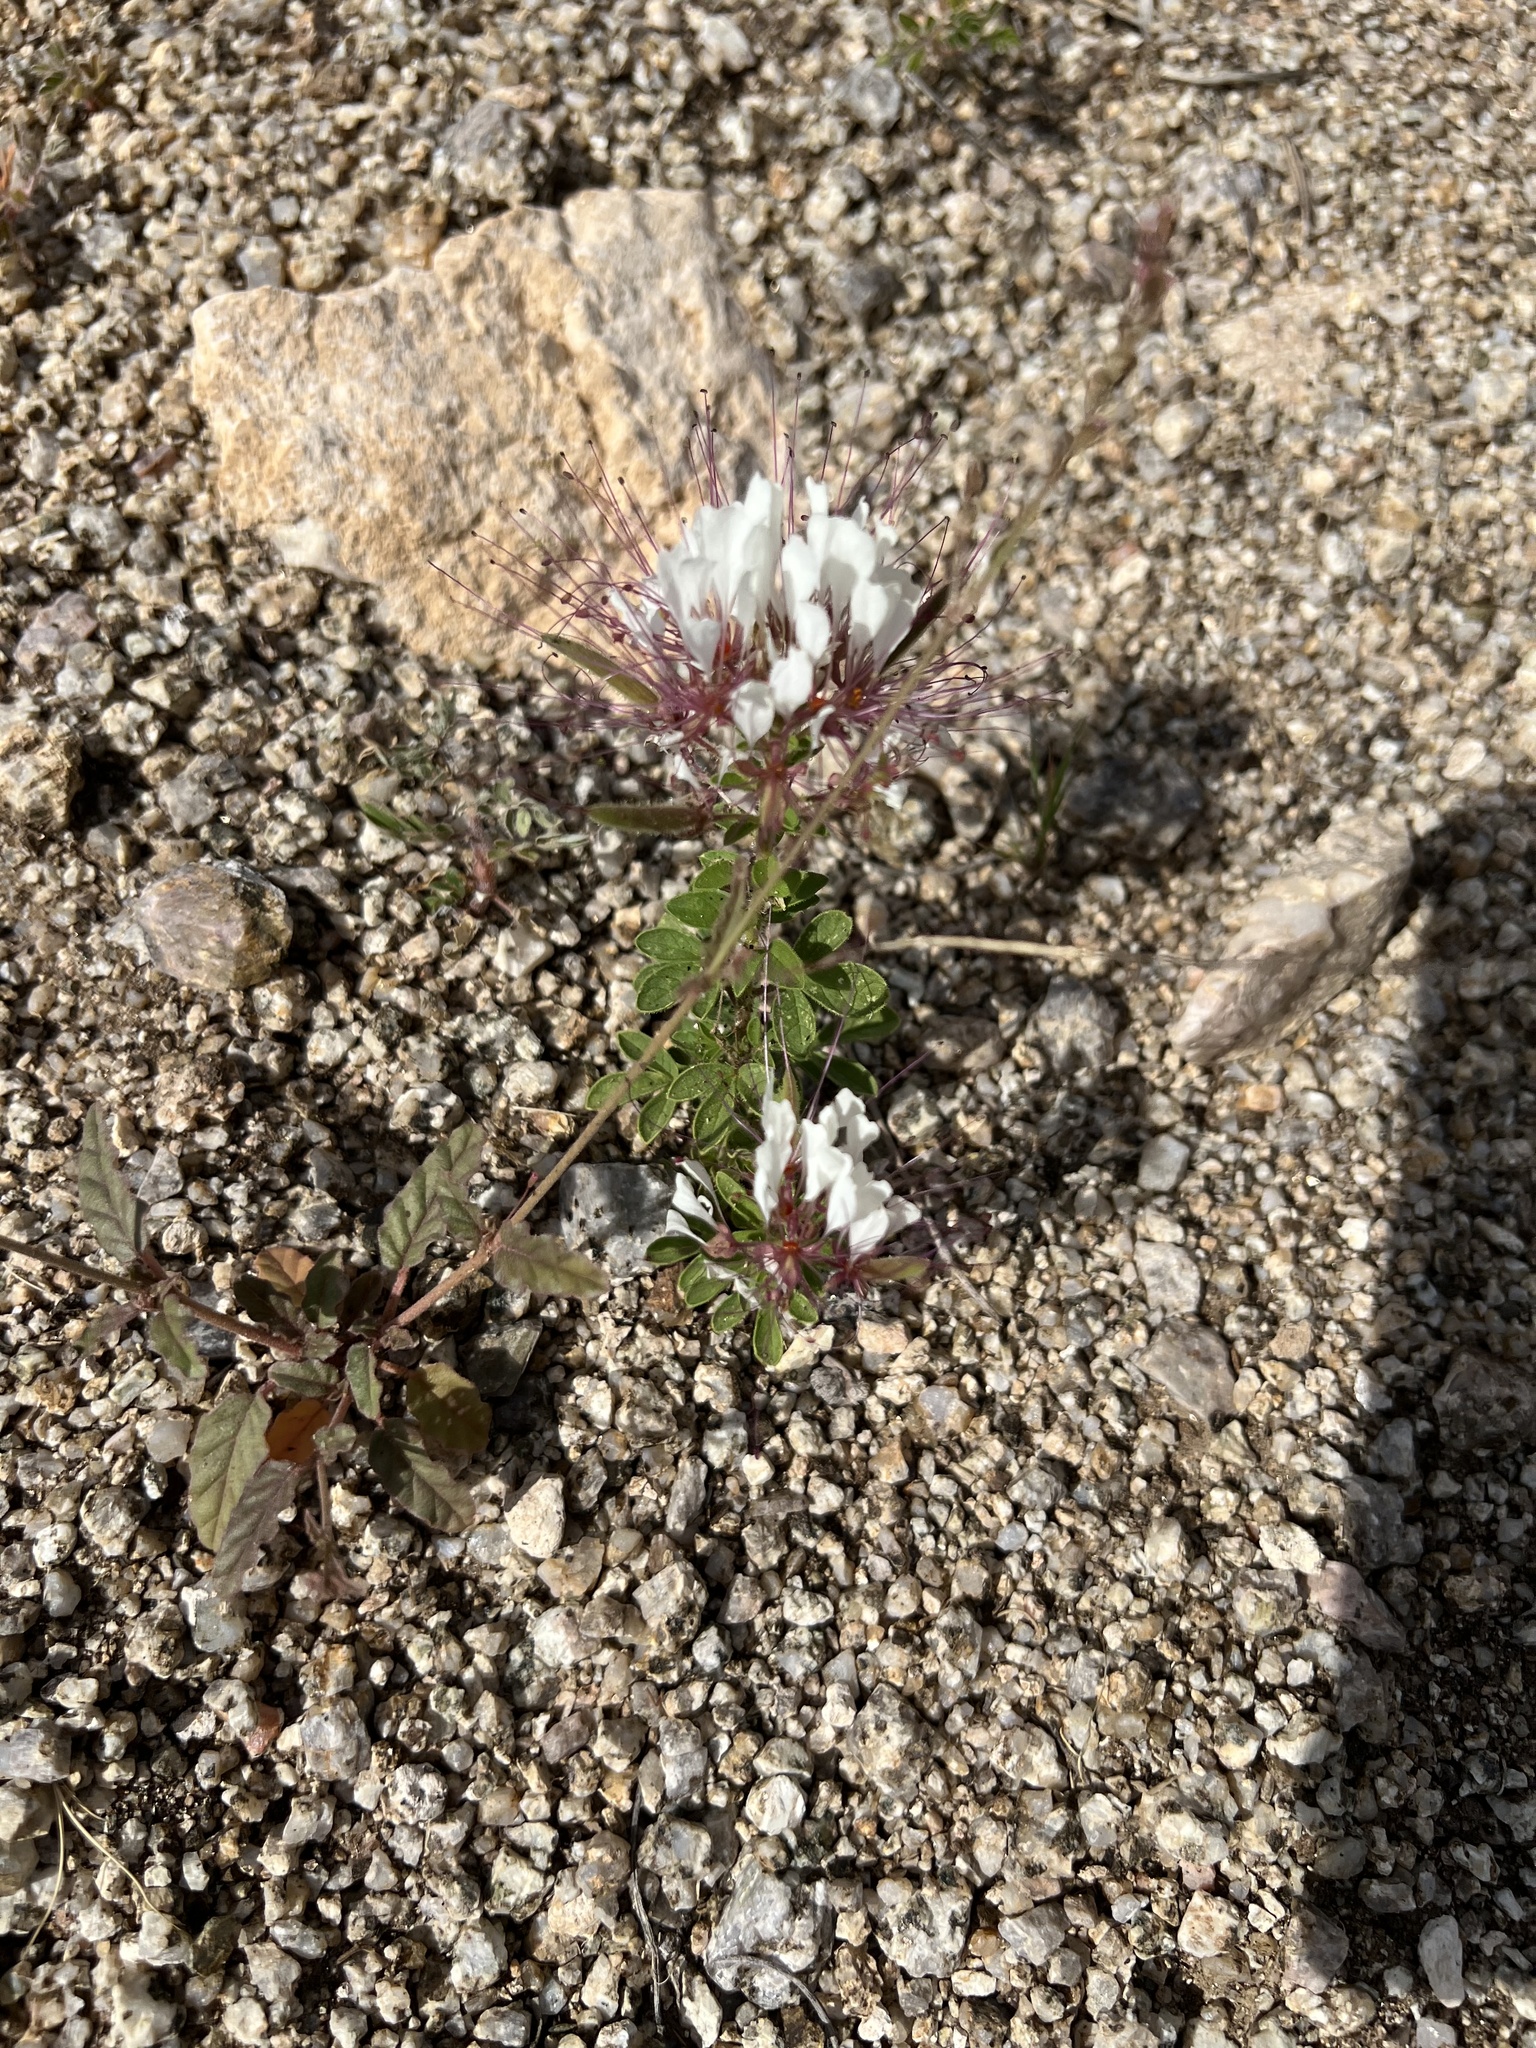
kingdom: Plantae
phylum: Tracheophyta
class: Magnoliopsida
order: Brassicales
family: Cleomaceae
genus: Polanisia
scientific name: Polanisia dodecandra
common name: Clammyweed
